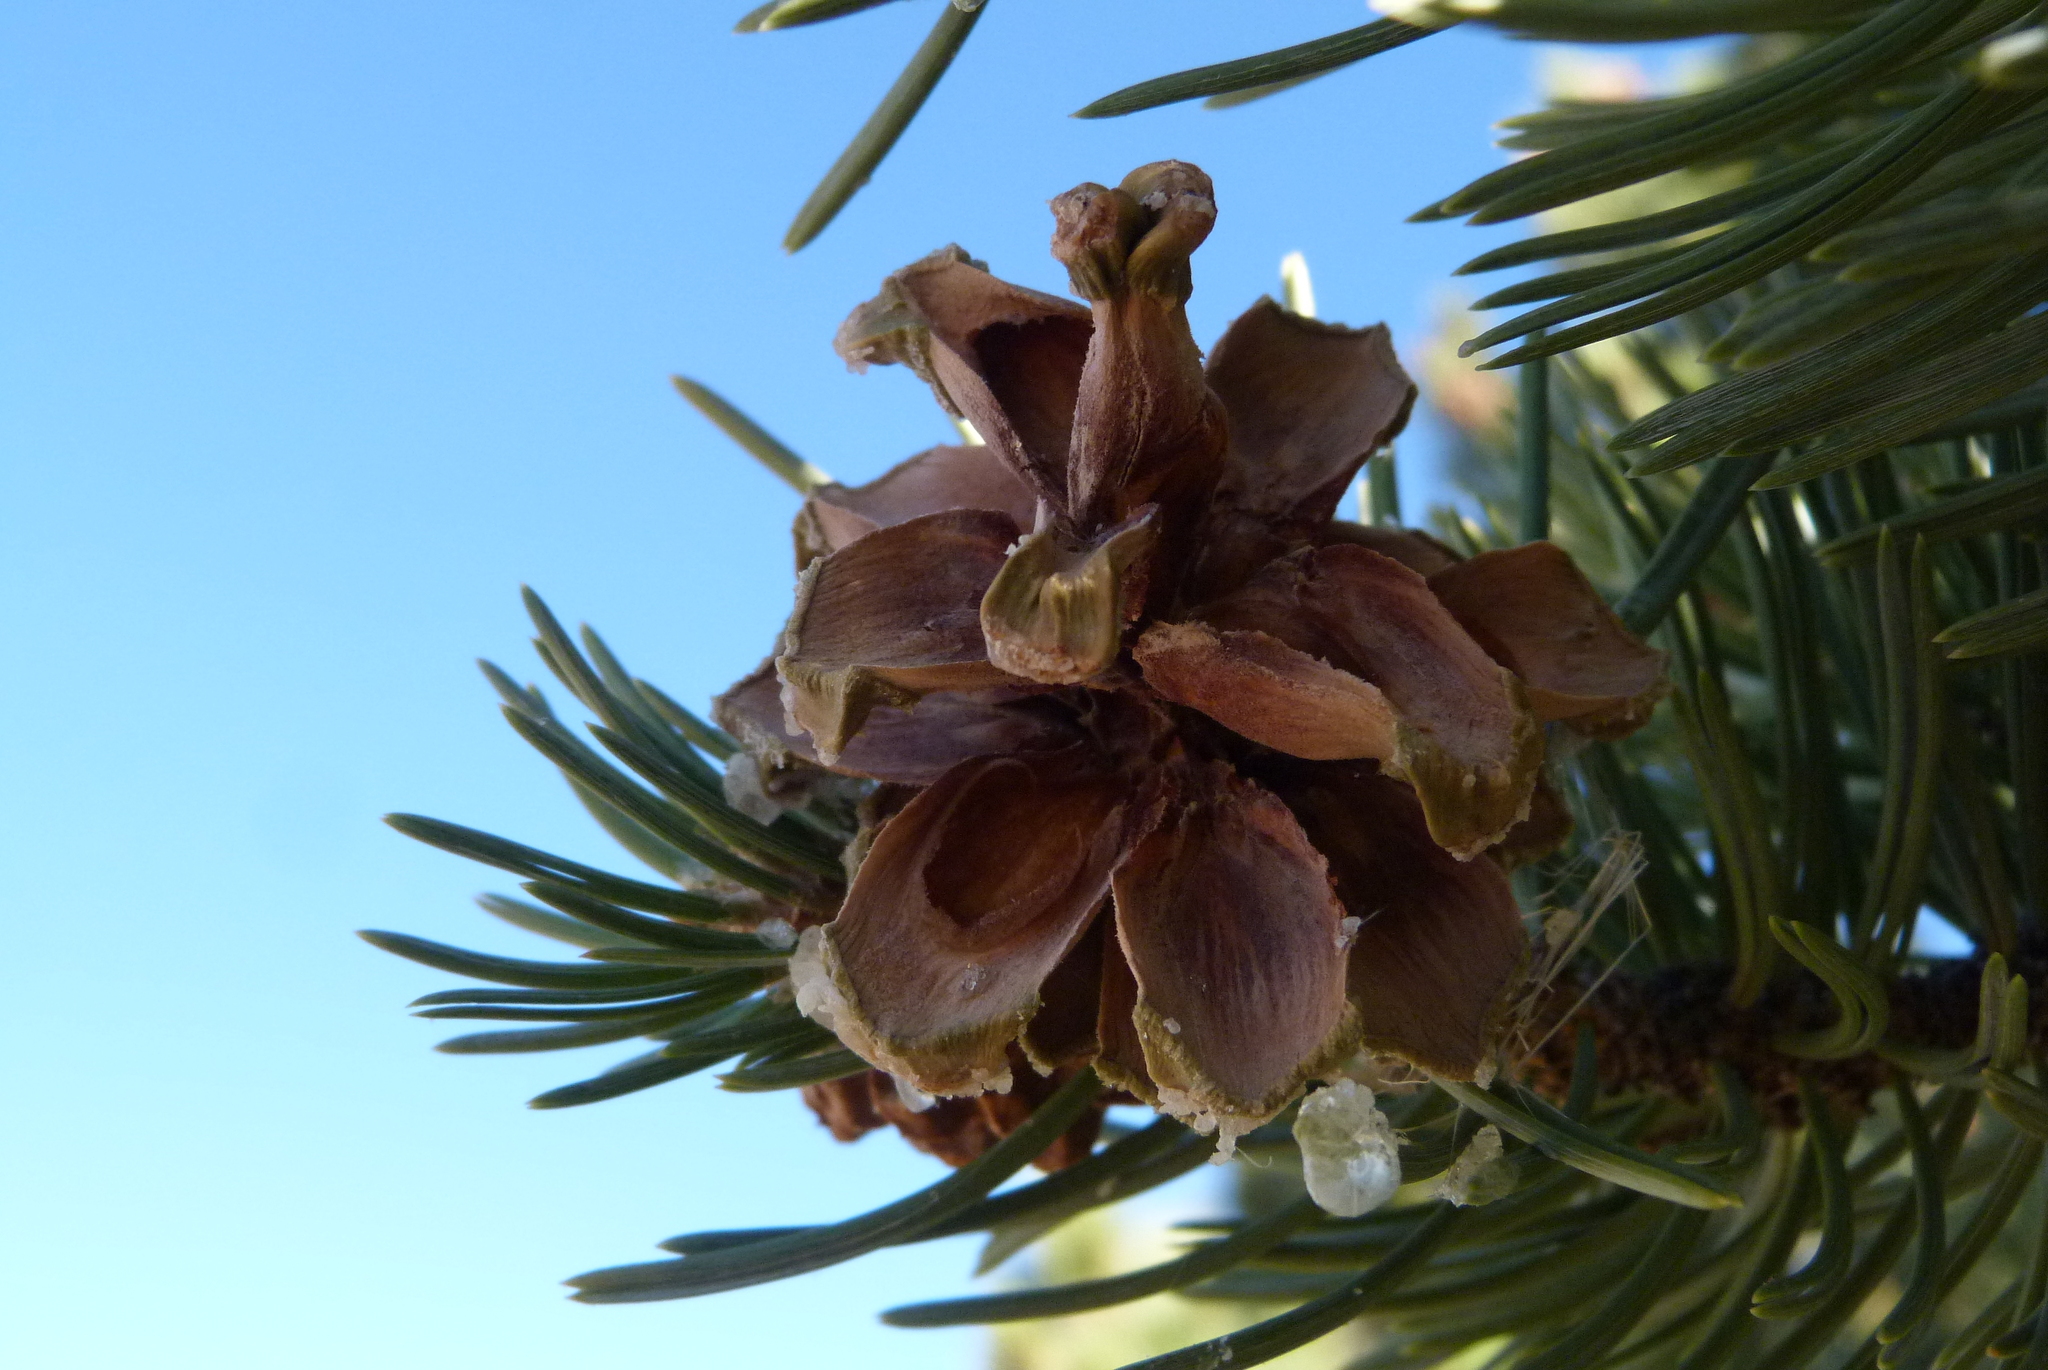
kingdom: Plantae
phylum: Tracheophyta
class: Pinopsida
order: Pinales
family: Pinaceae
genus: Pinus
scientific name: Pinus edulis
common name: Colorado pinyon
